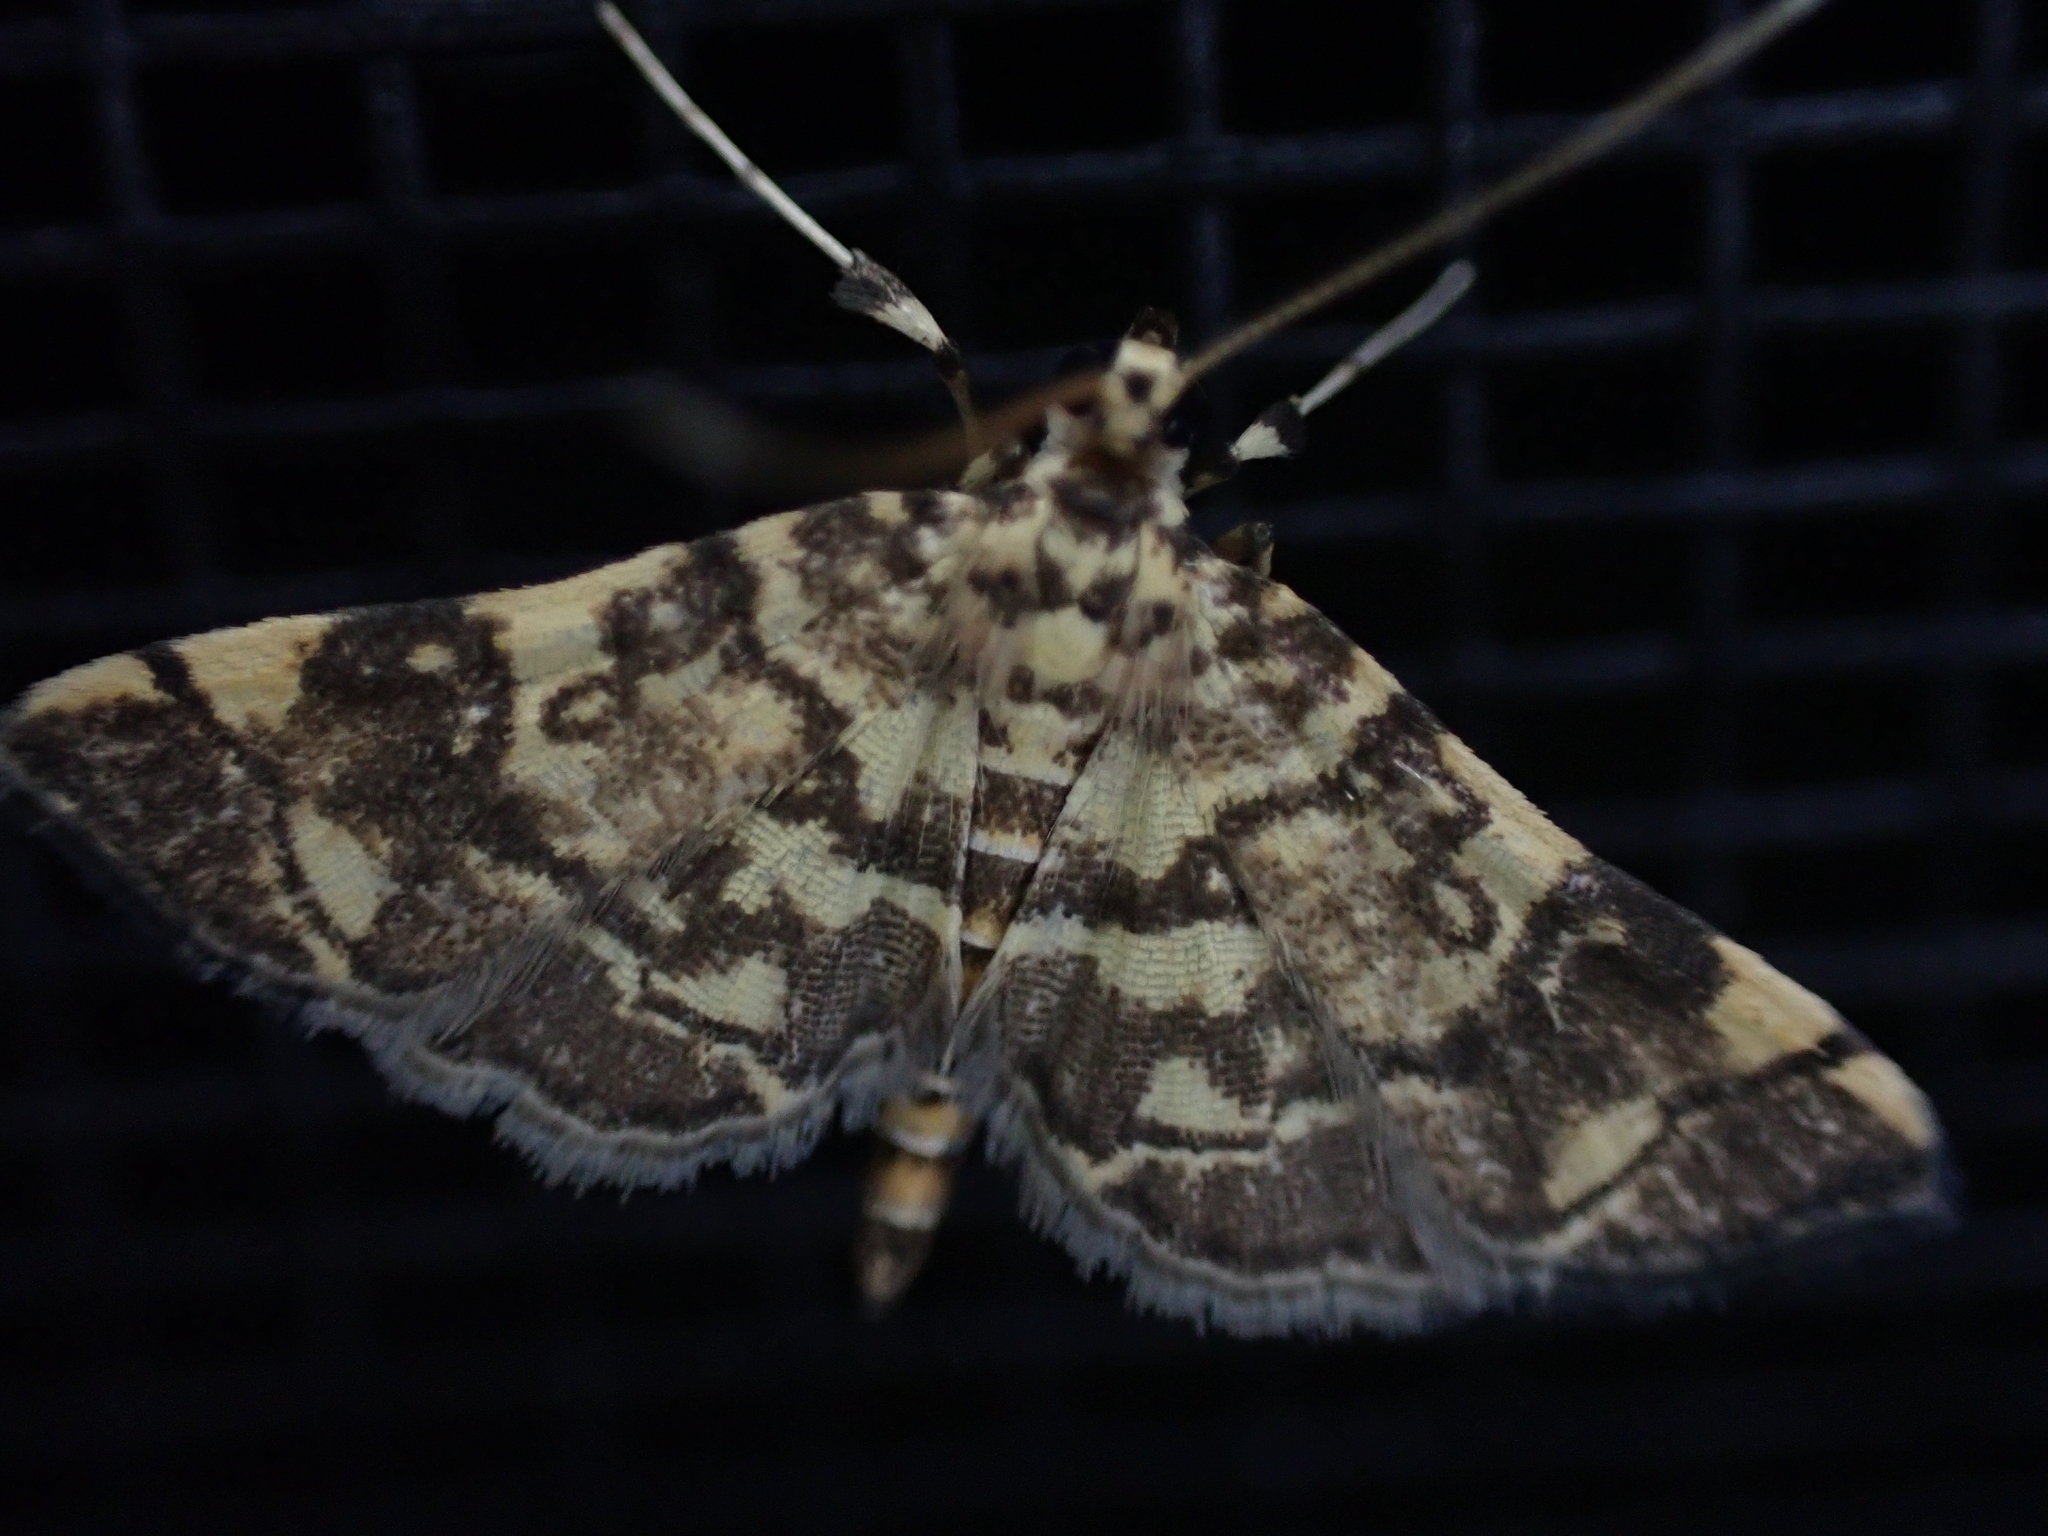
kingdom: Animalia
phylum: Arthropoda
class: Insecta
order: Lepidoptera
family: Crambidae
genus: Apogeshna
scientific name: Apogeshna stenialis
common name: Checkered apogeshna moth
